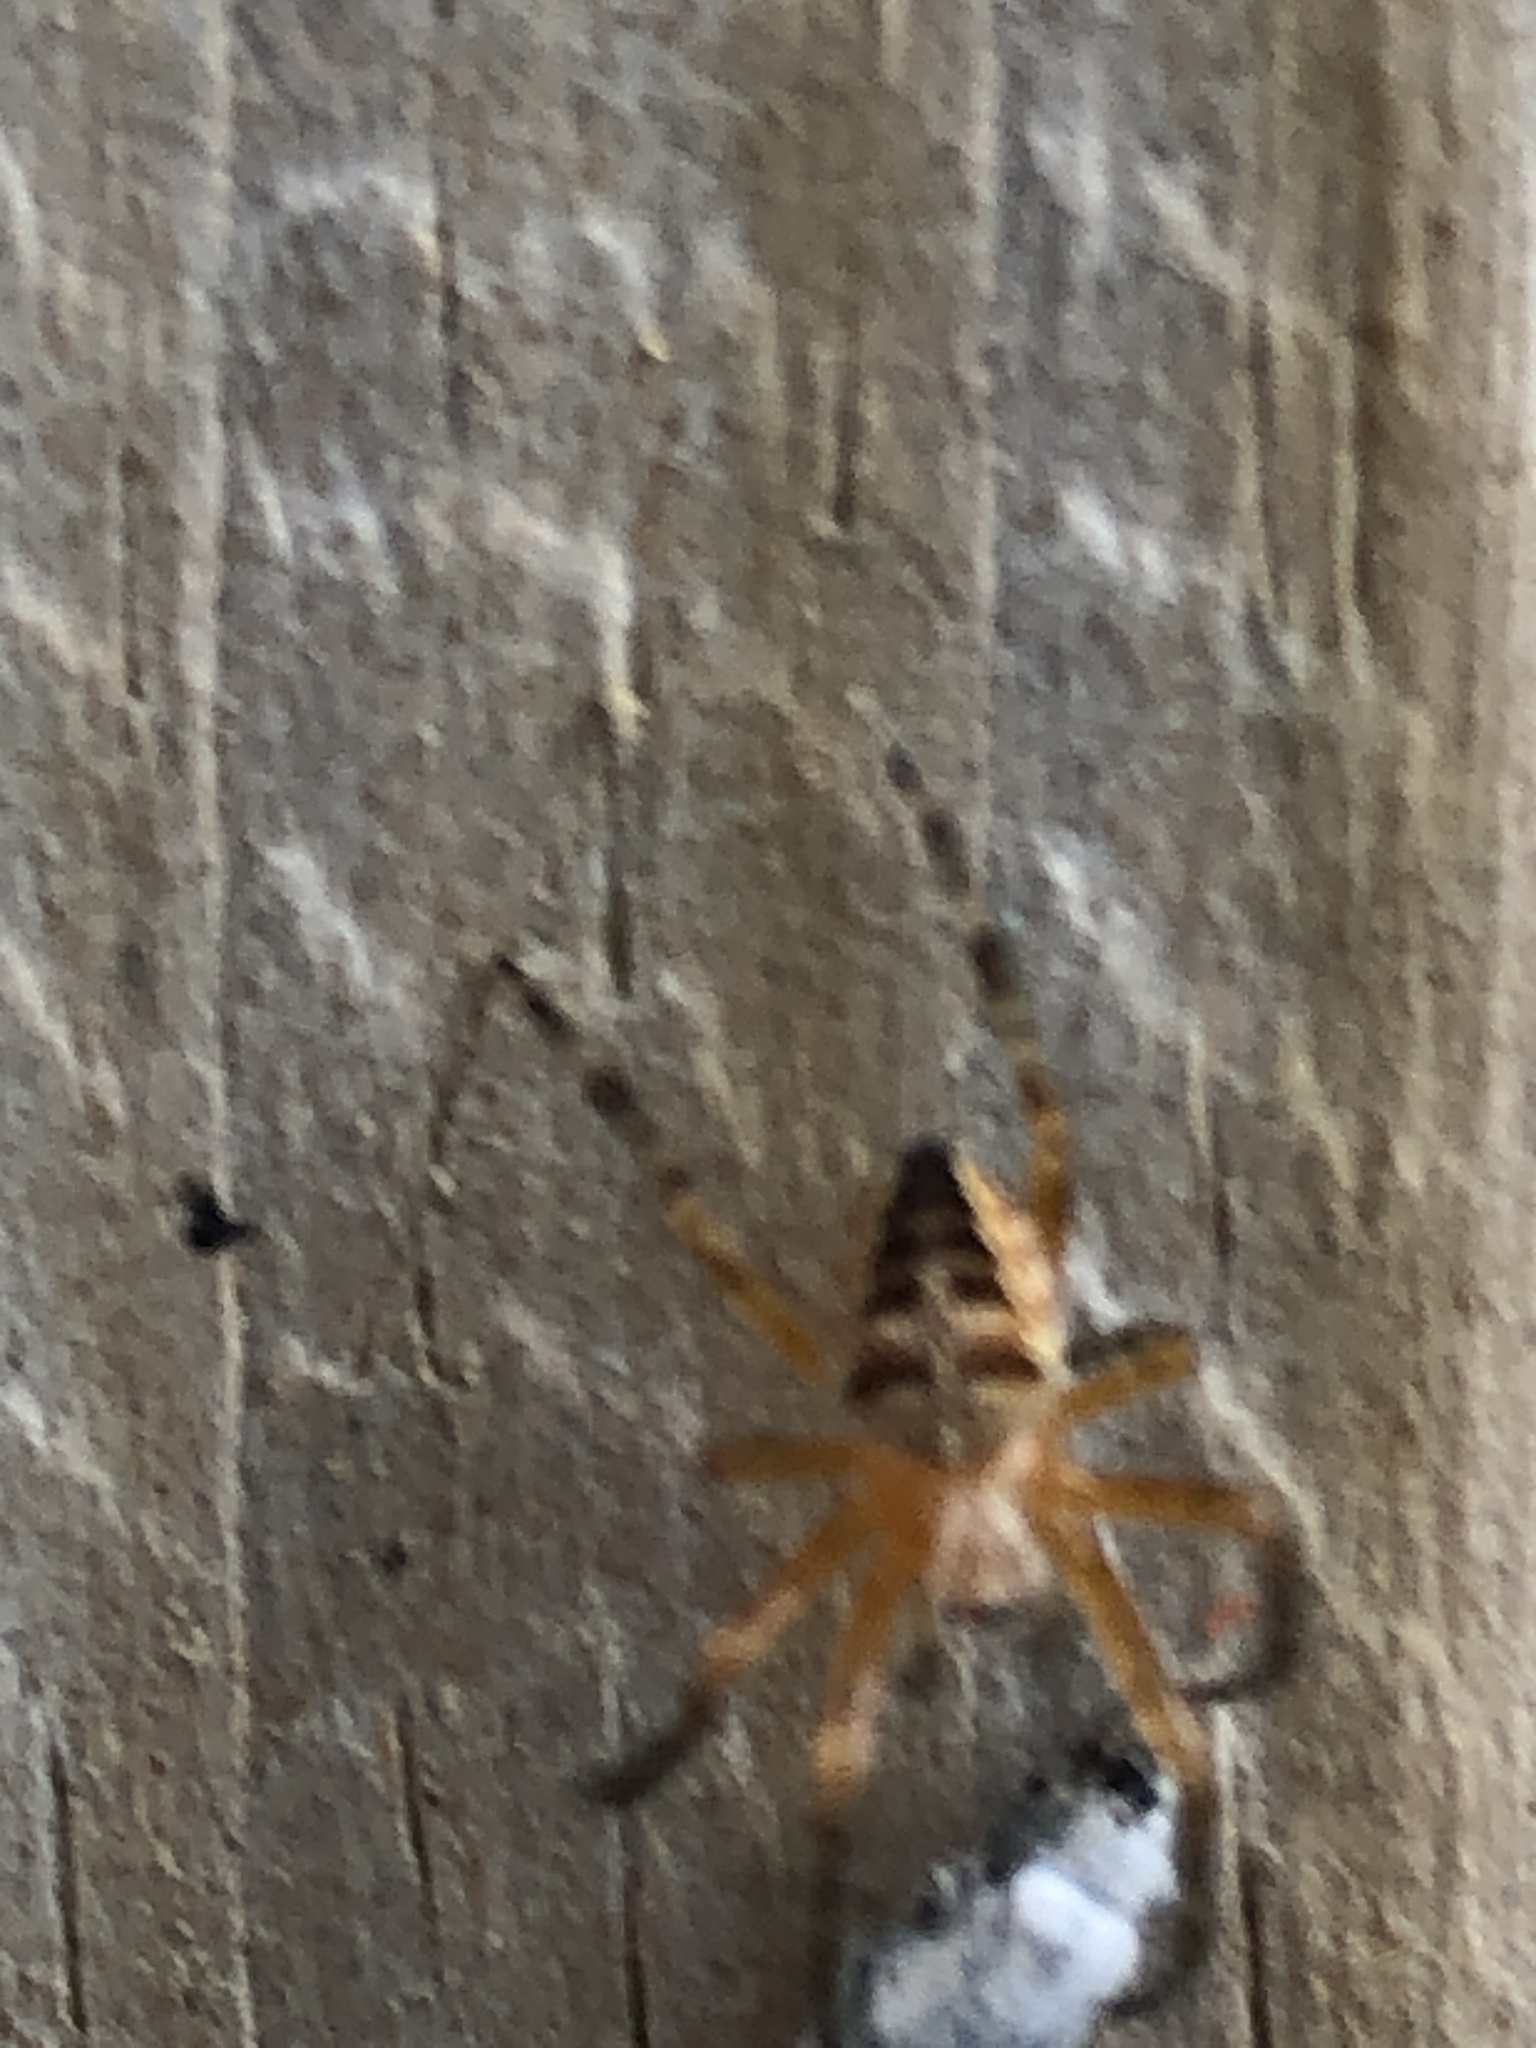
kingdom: Animalia
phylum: Arthropoda
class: Arachnida
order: Araneae
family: Araneidae
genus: Araneus
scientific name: Araneus diadematus
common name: Cross orbweaver
